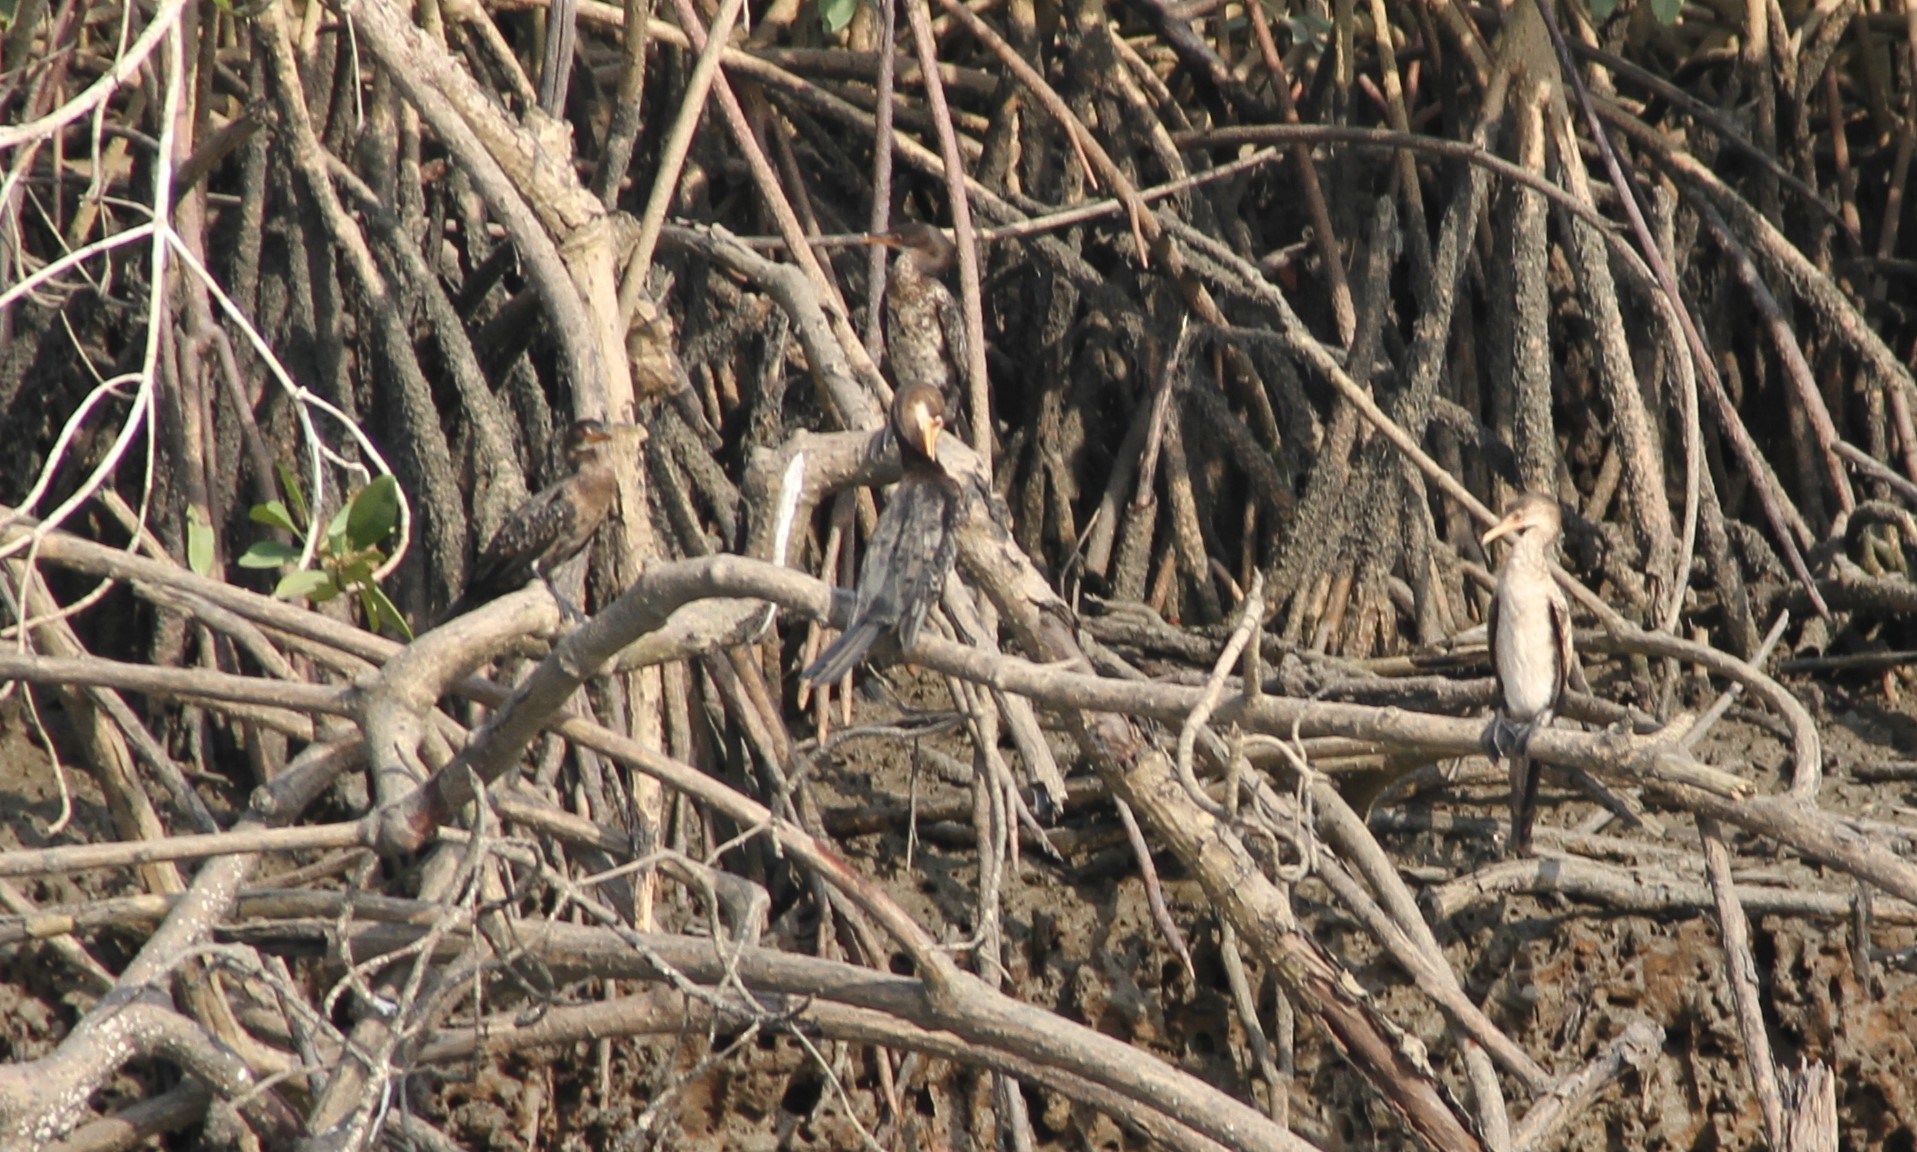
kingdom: Animalia
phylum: Chordata
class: Aves
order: Suliformes
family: Phalacrocoracidae
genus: Microcarbo
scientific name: Microcarbo africanus
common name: Long-tailed cormorant
